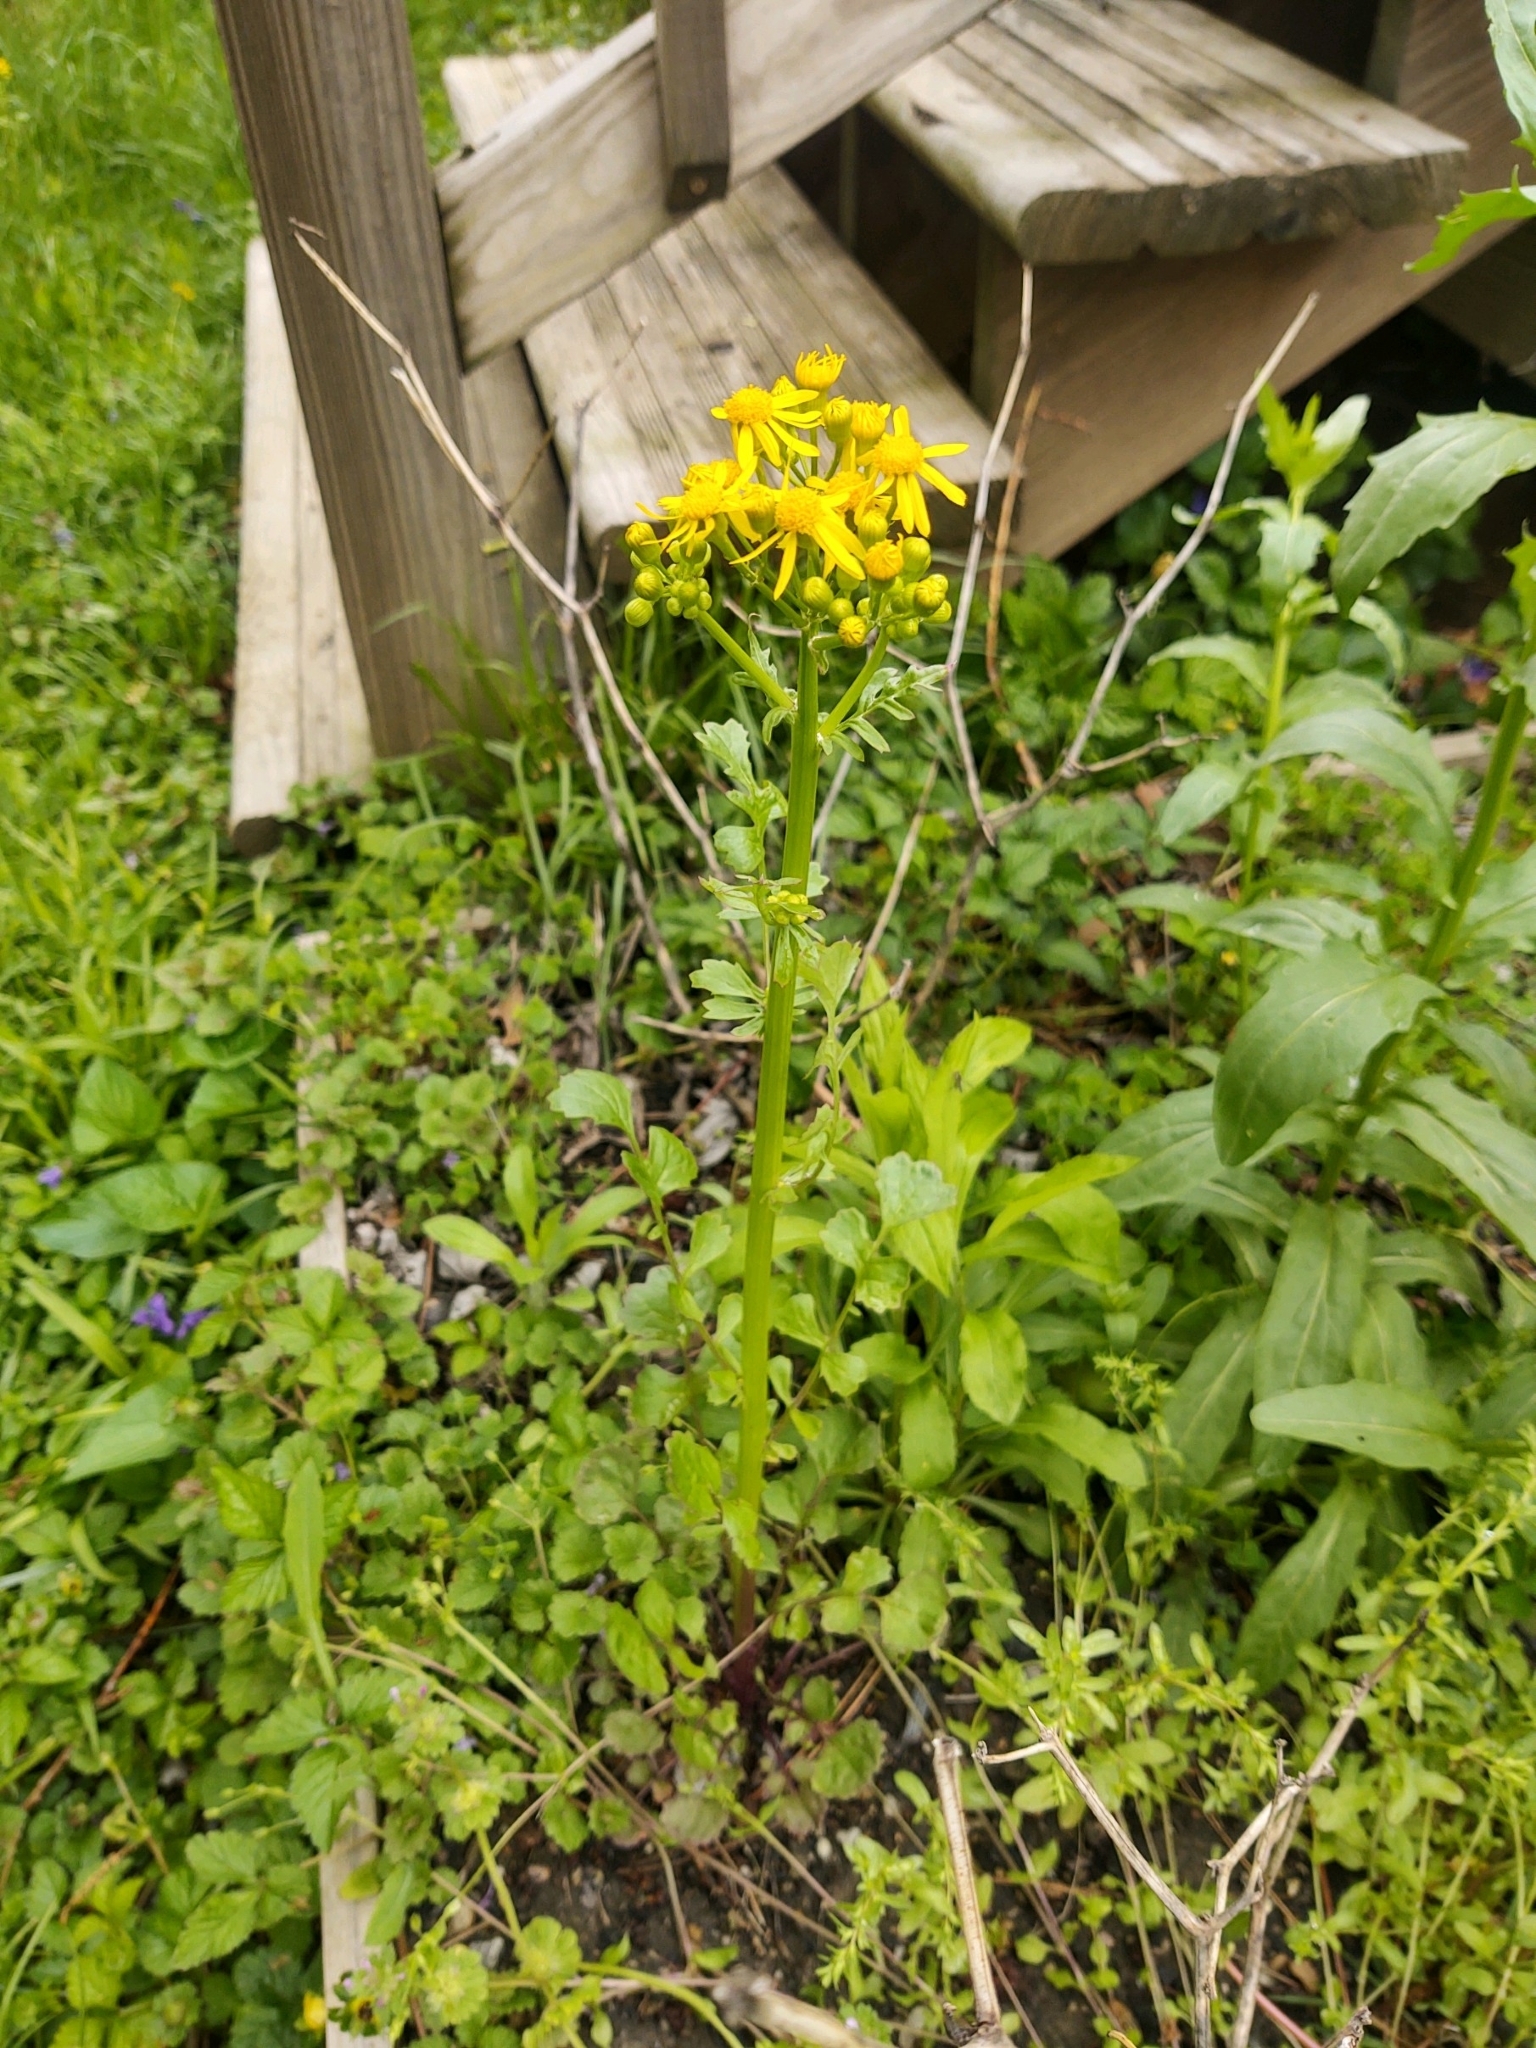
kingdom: Plantae
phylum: Tracheophyta
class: Magnoliopsida
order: Asterales
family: Asteraceae
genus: Packera
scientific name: Packera glabella
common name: Butterweed
